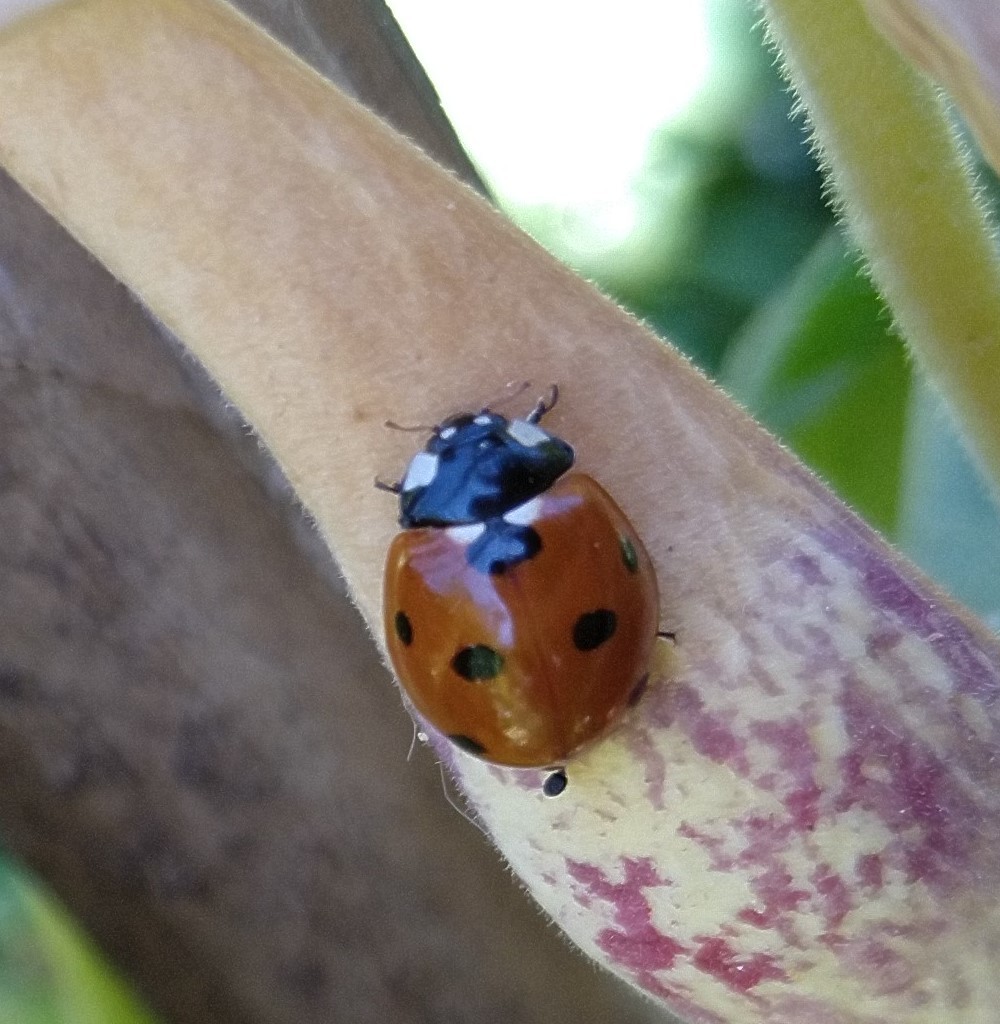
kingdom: Animalia
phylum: Arthropoda
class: Insecta
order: Coleoptera
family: Coccinellidae
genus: Coccinella
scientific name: Coccinella septempunctata
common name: Sevenspotted lady beetle
